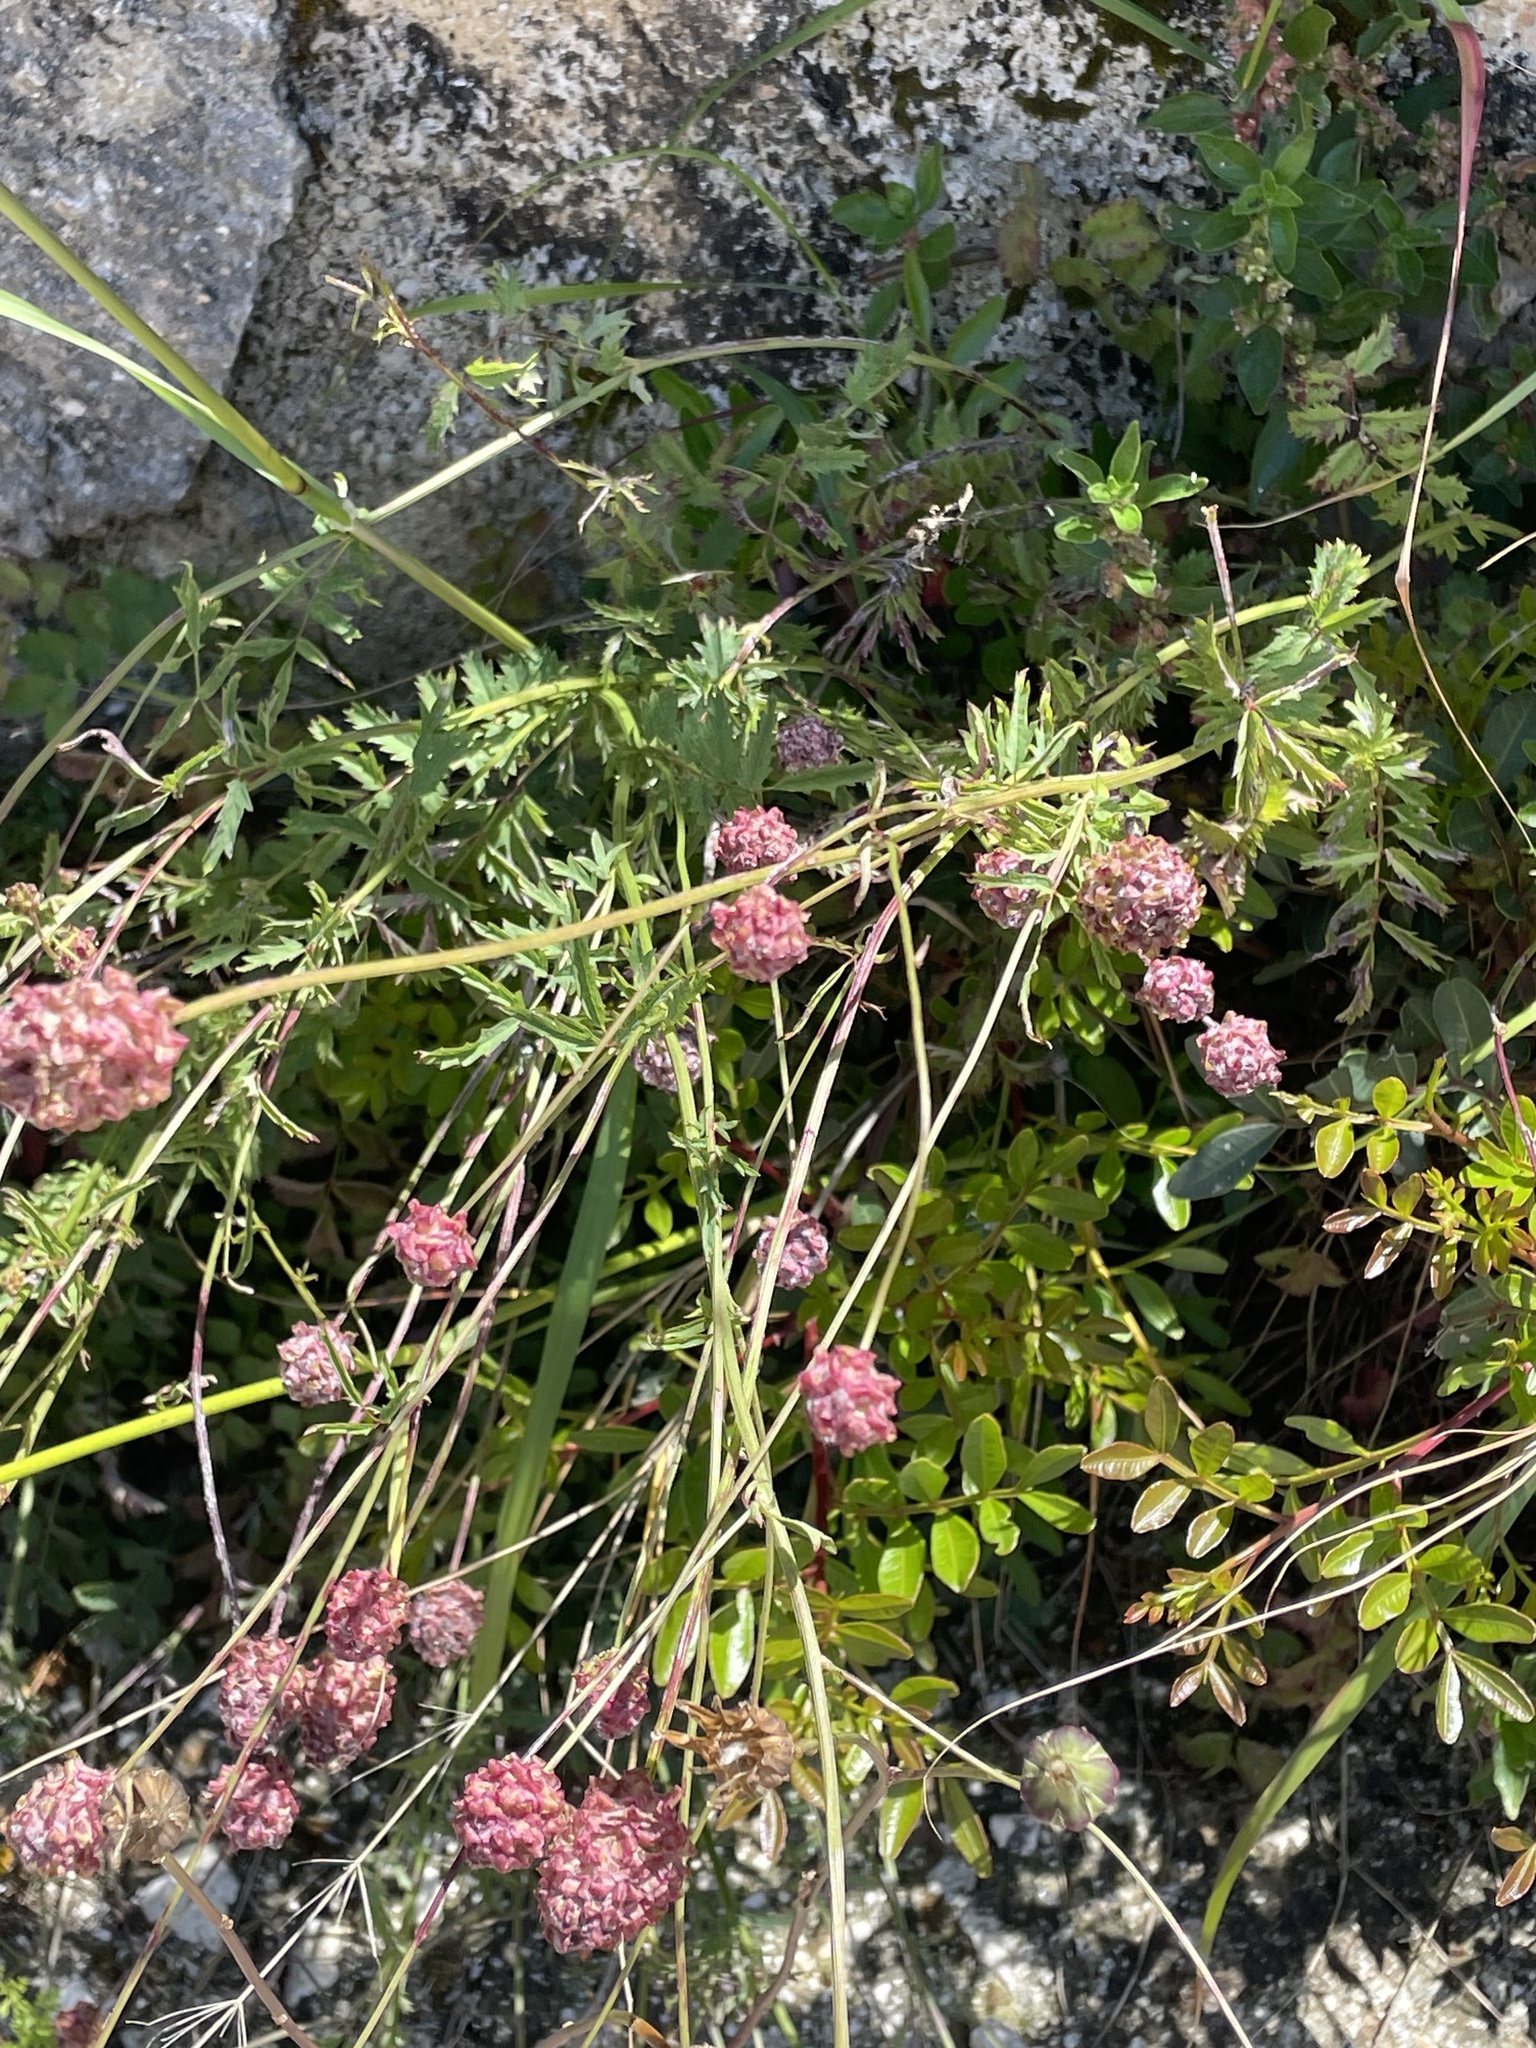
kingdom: Plantae
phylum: Tracheophyta
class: Magnoliopsida
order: Rosales
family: Rosaceae
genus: Poterium
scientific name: Poterium sanguisorba
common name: Salad burnet
